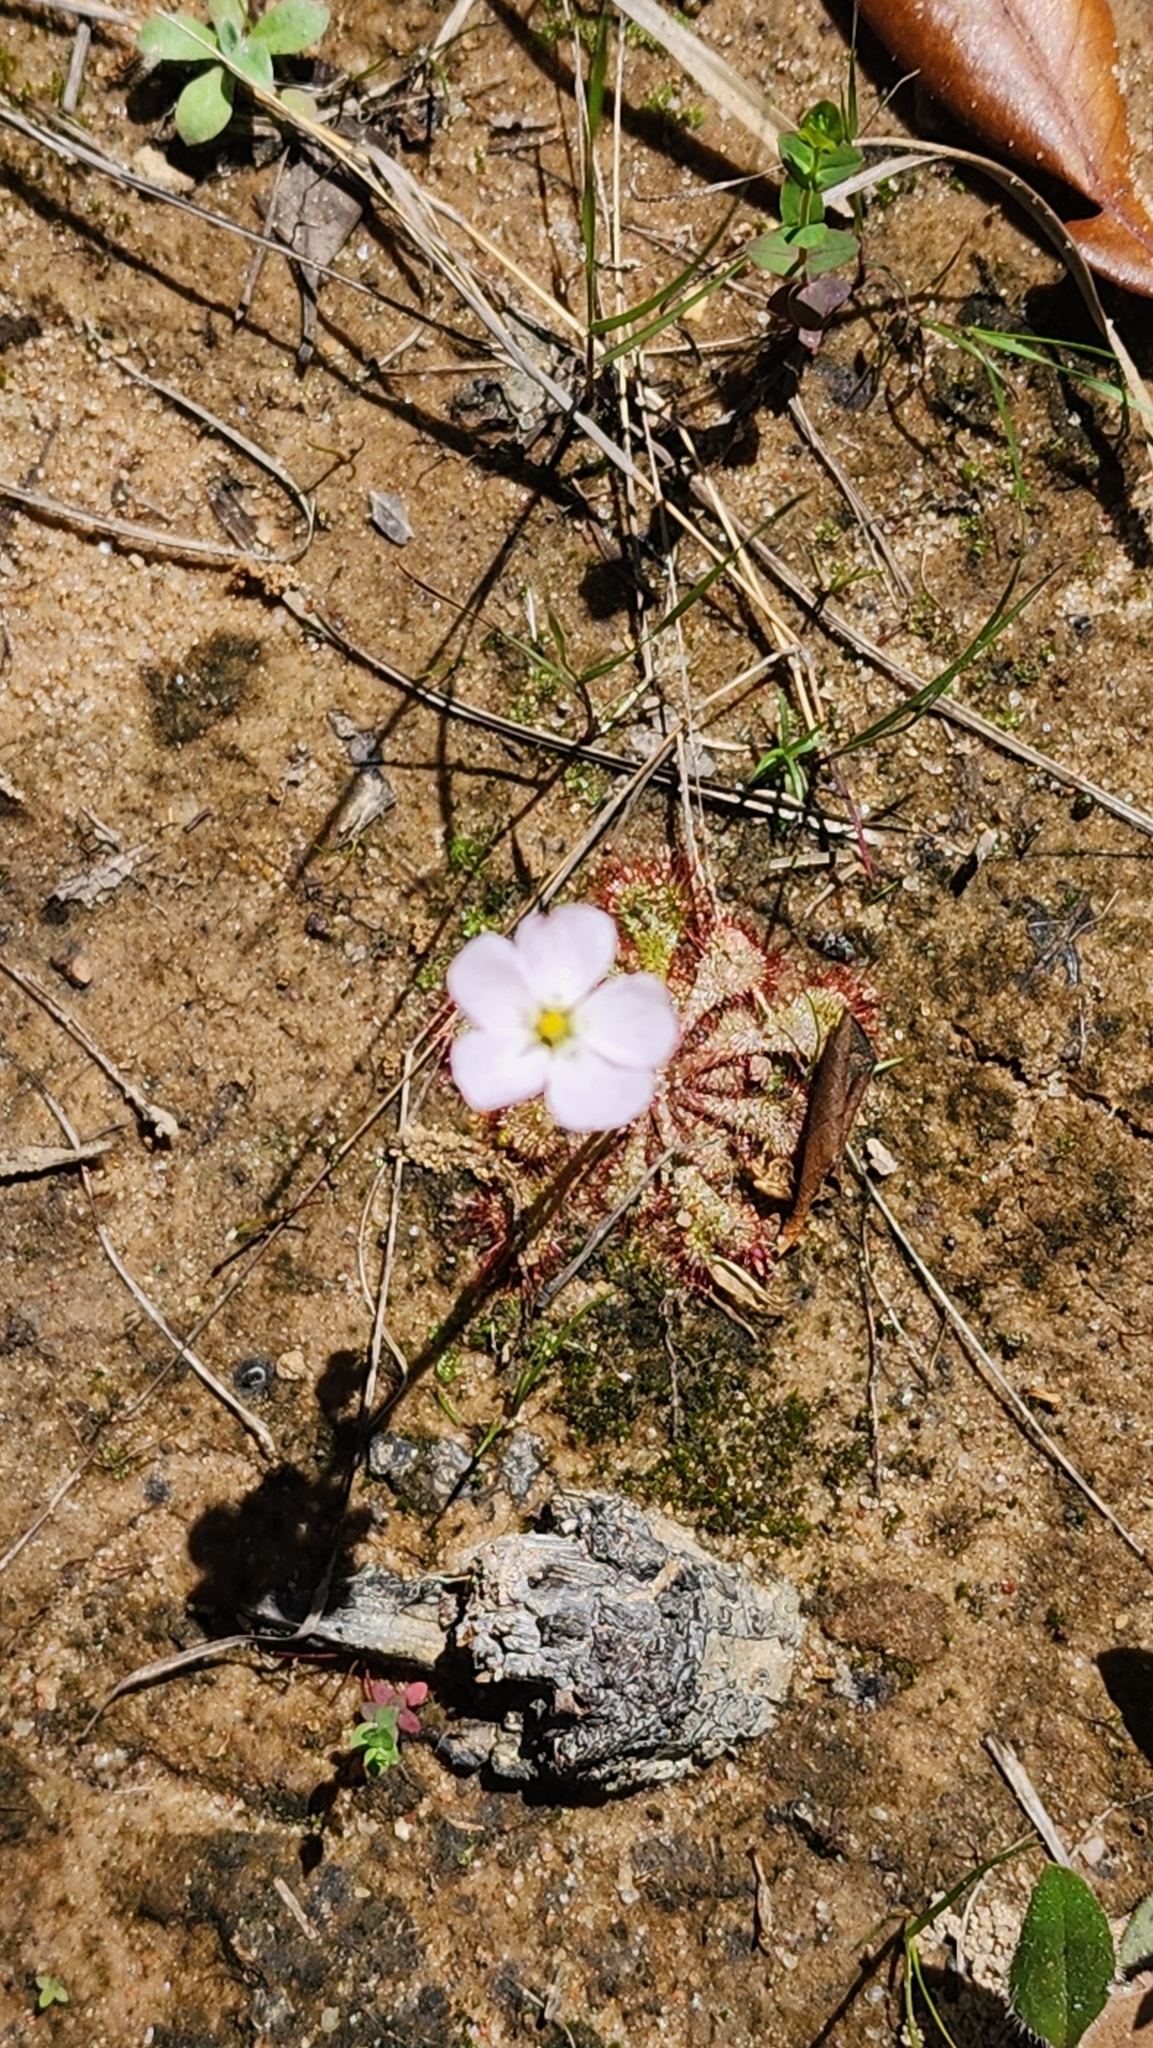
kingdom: Plantae
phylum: Tracheophyta
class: Magnoliopsida
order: Caryophyllales
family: Droseraceae
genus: Drosera
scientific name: Drosera brevifolia
